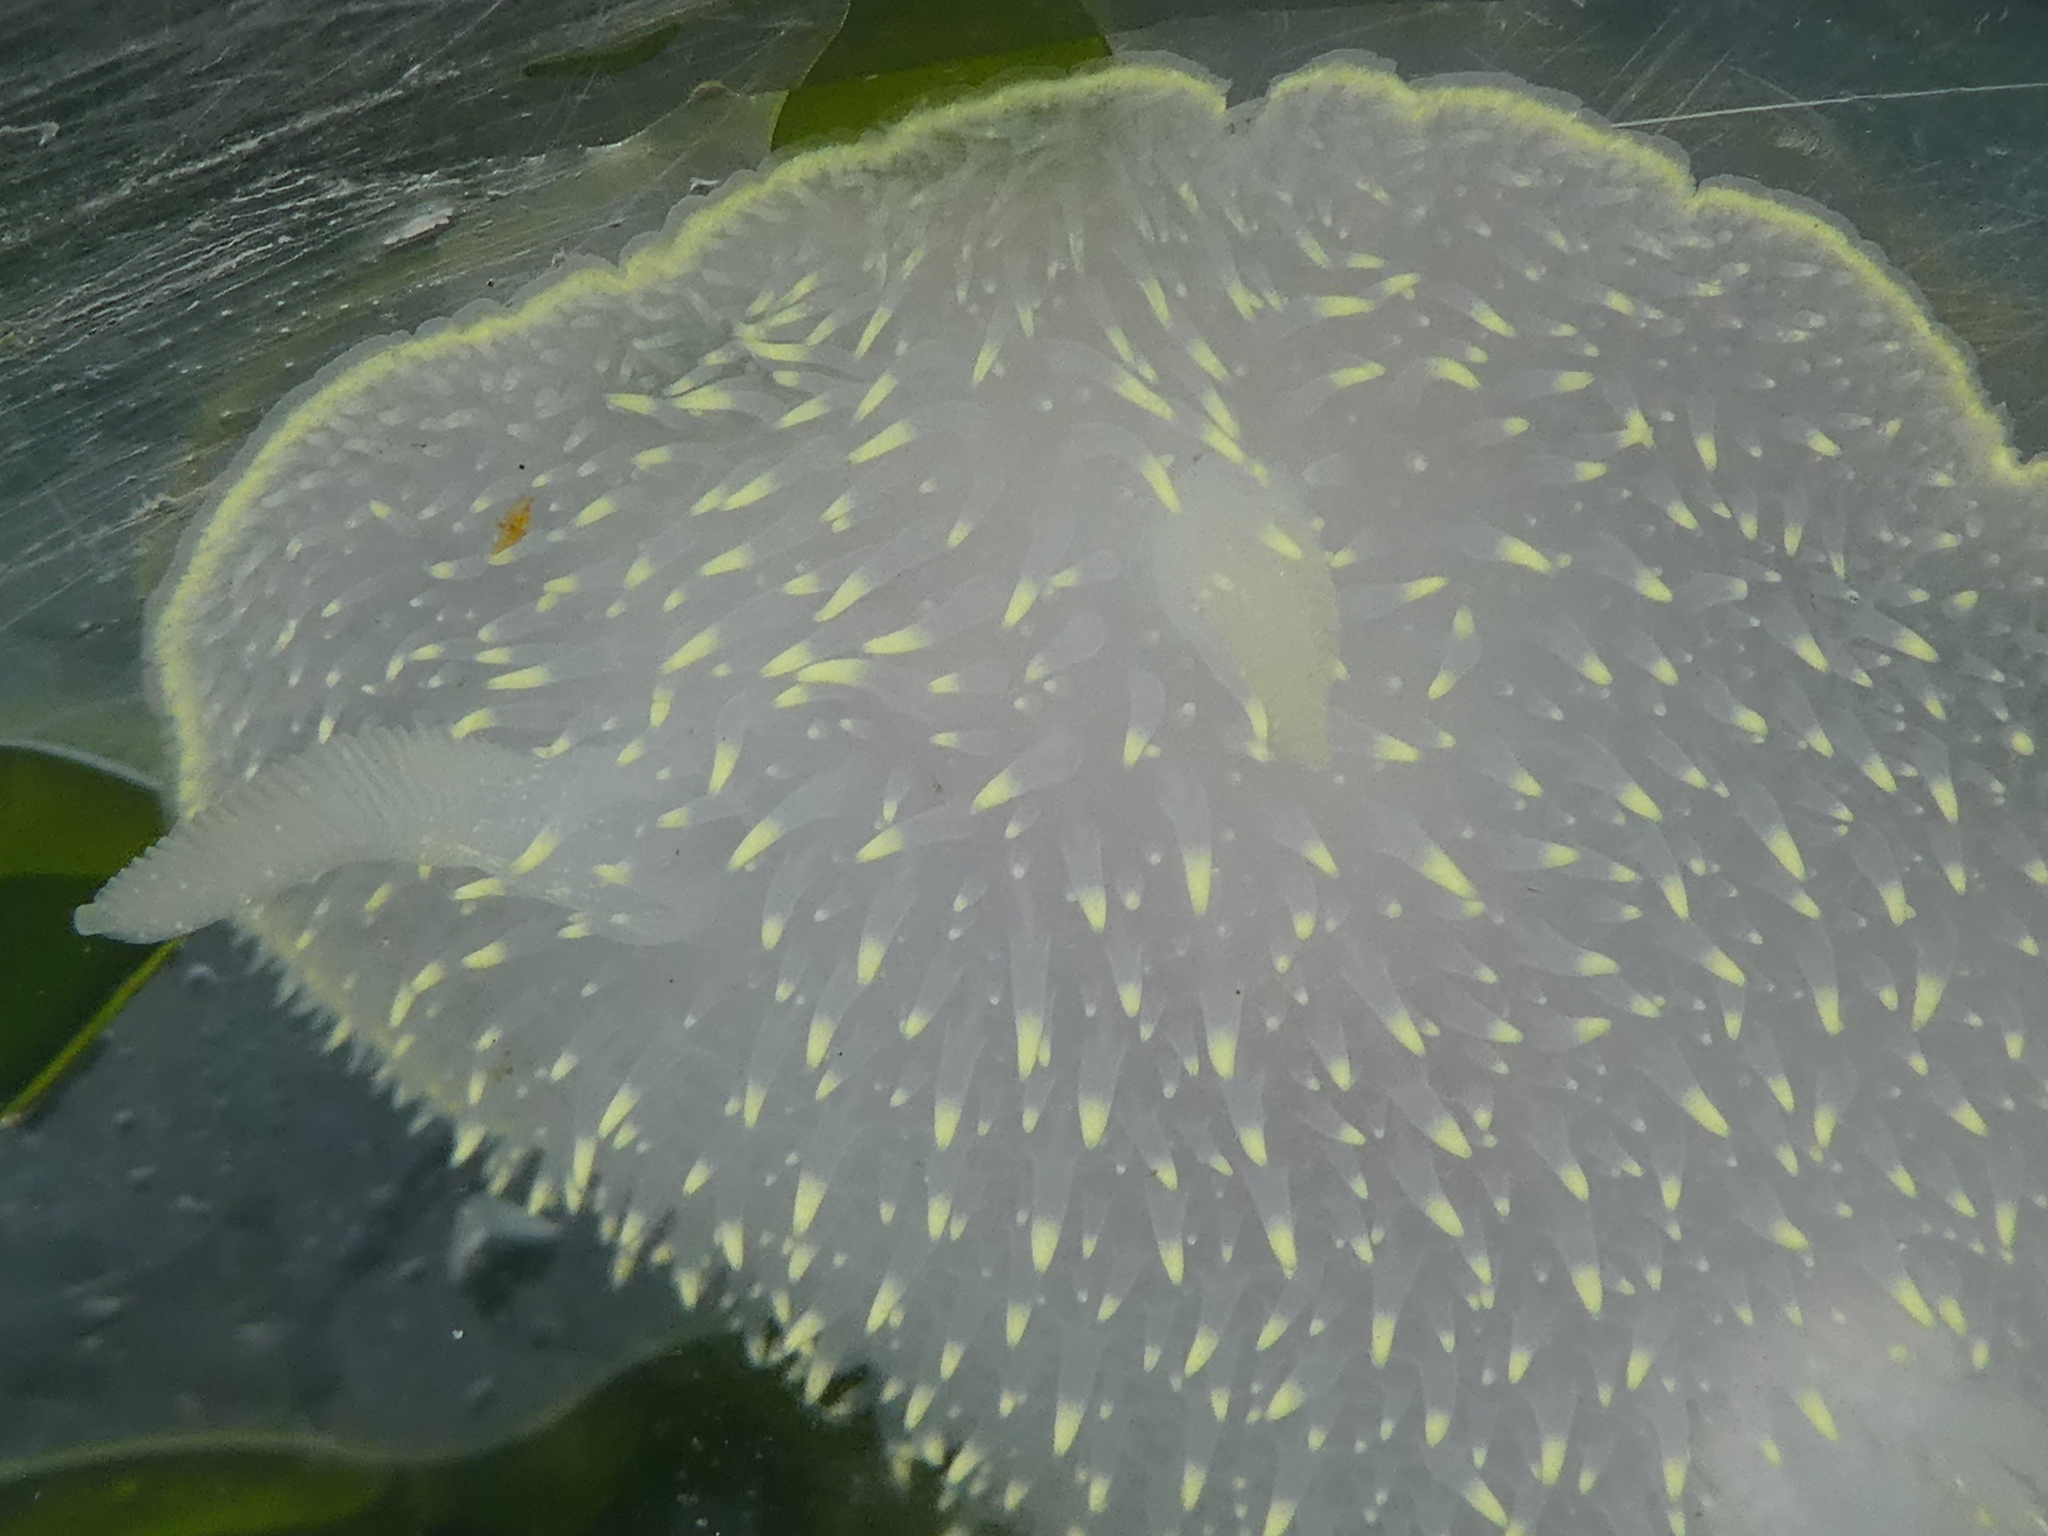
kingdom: Animalia
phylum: Mollusca
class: Gastropoda
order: Nudibranchia
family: Onchidorididae
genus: Acanthodoris
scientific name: Acanthodoris hudsoni
